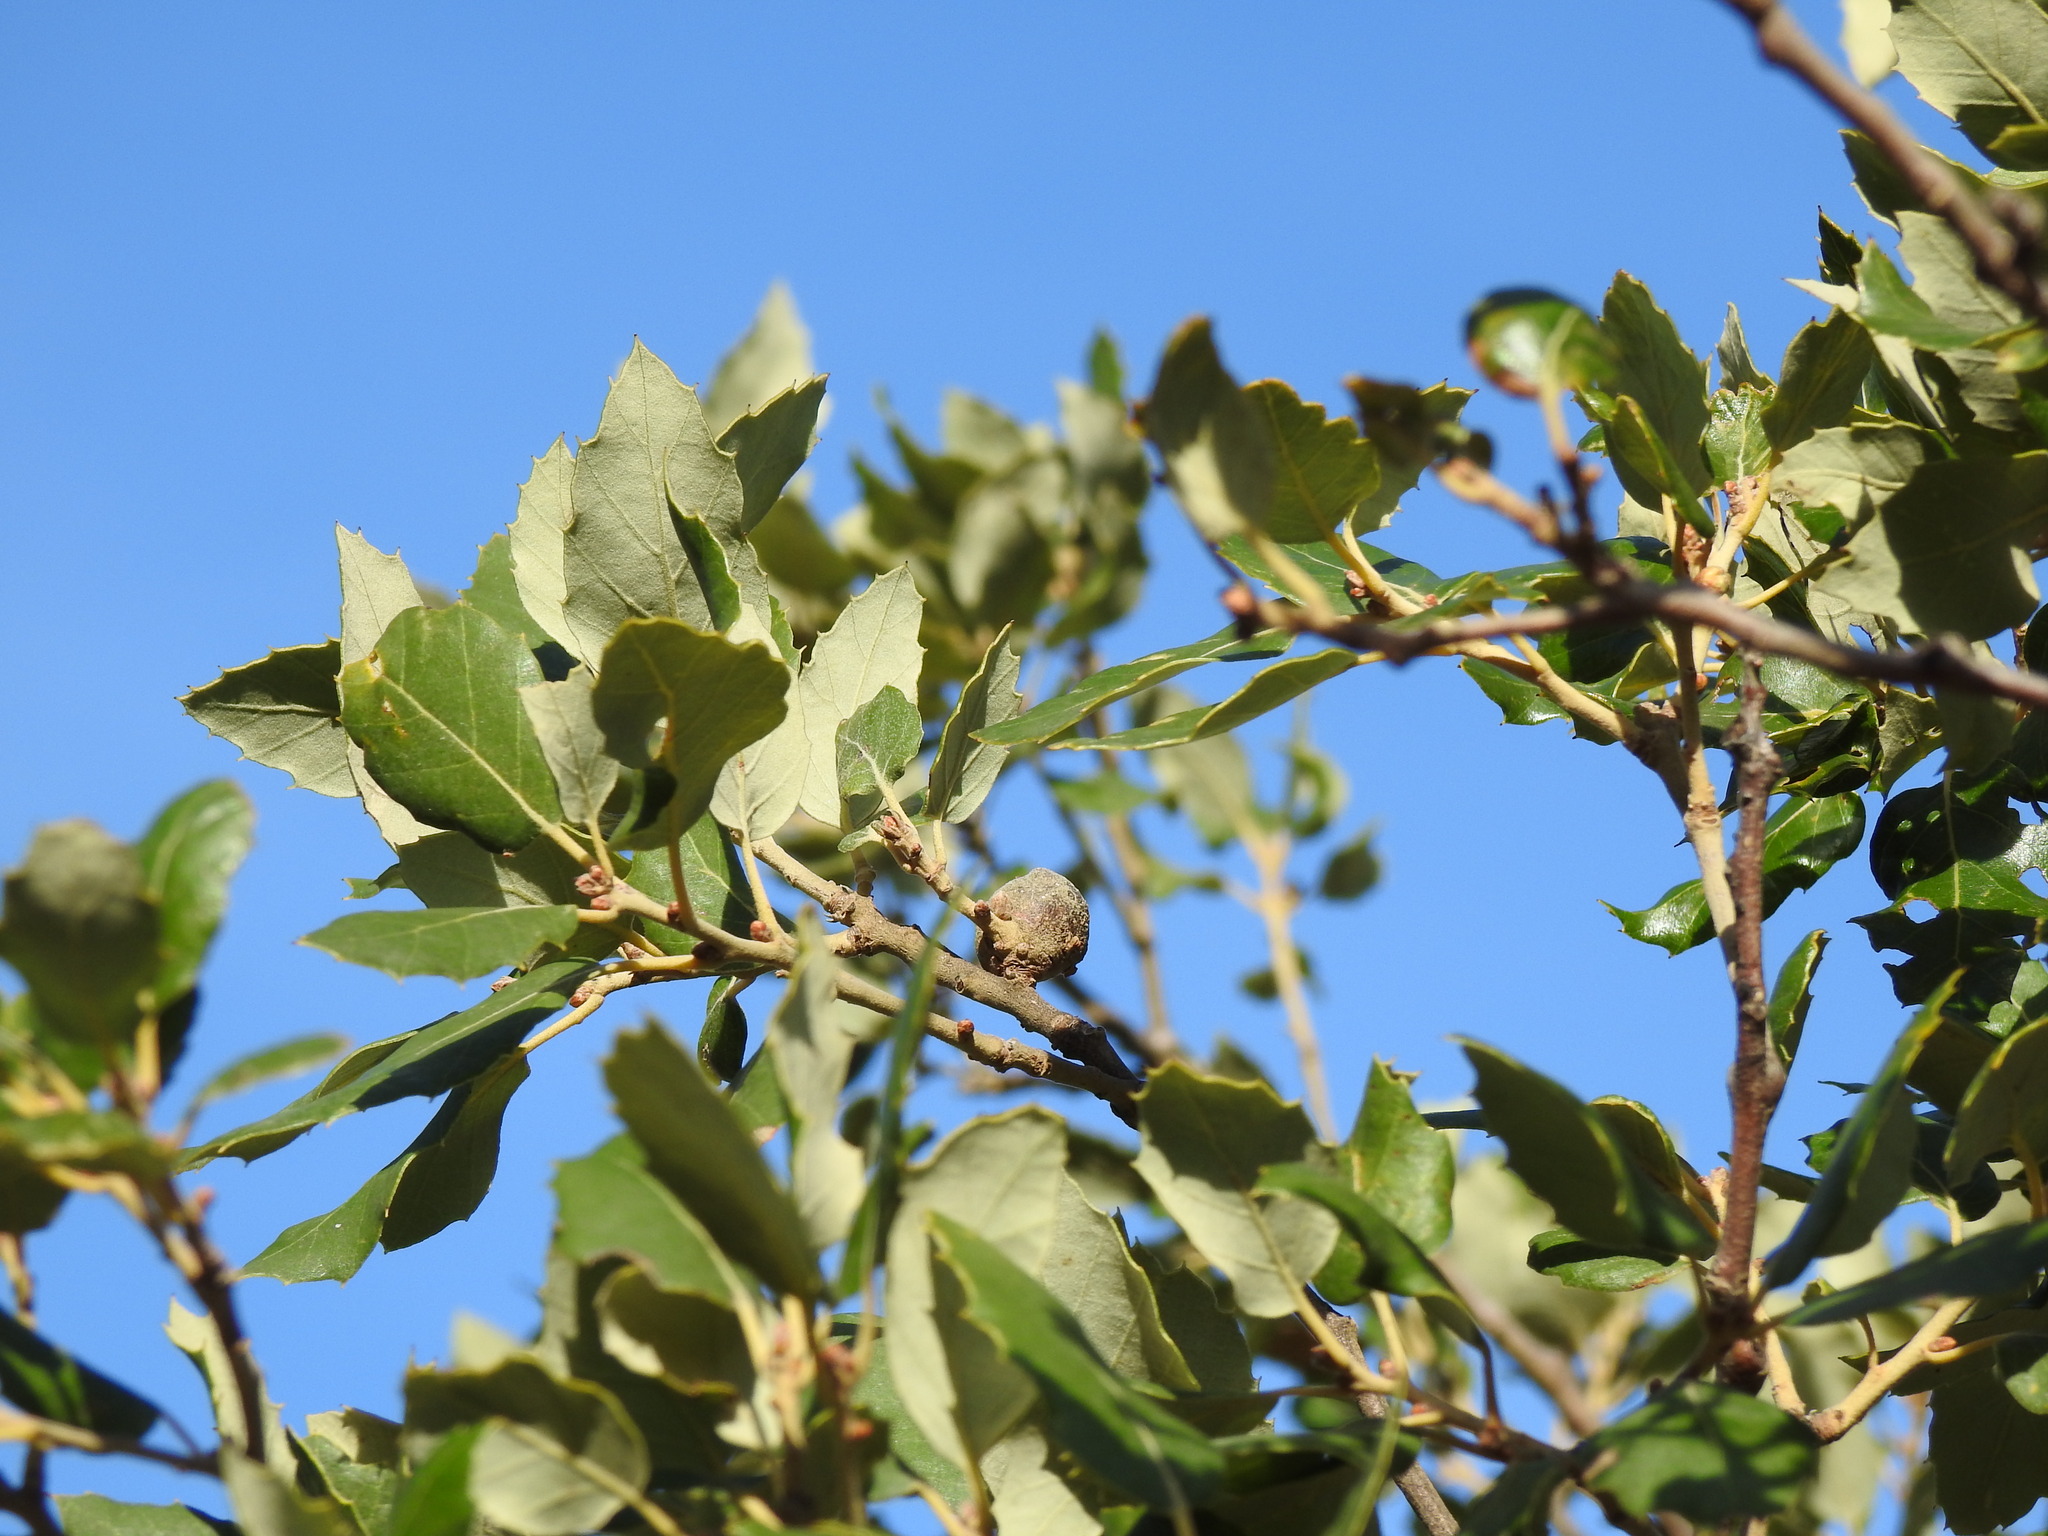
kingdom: Plantae
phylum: Tracheophyta
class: Magnoliopsida
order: Fagales
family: Fagaceae
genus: Quercus
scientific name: Quercus suber
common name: Cork oak
